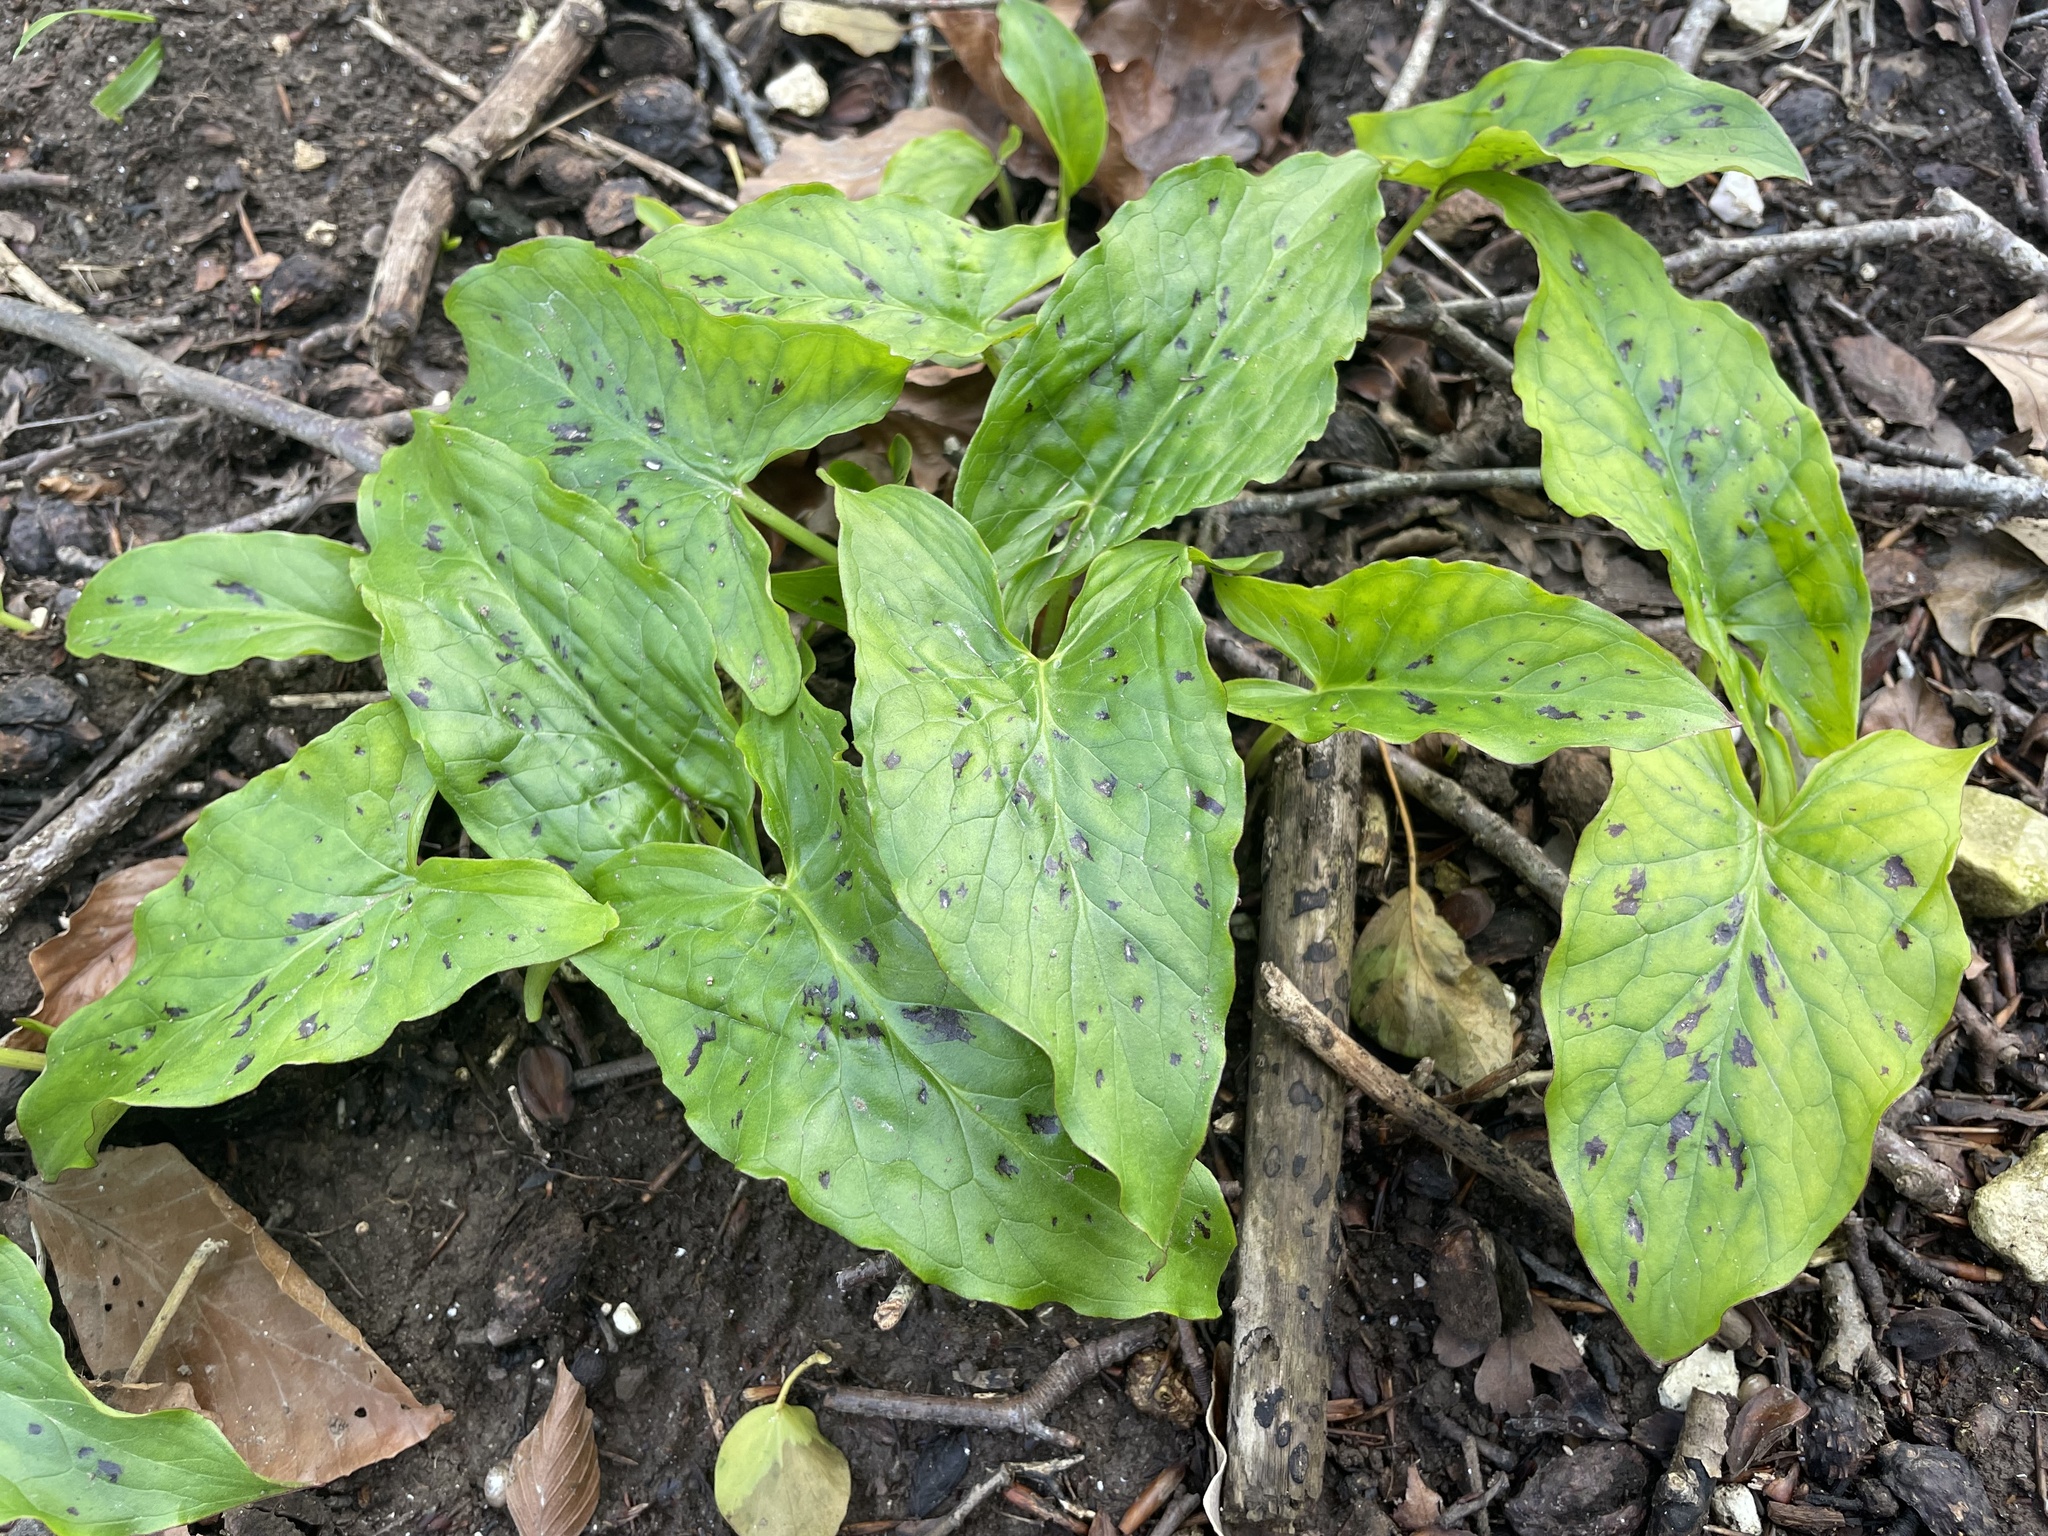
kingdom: Plantae
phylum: Tracheophyta
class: Liliopsida
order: Alismatales
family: Araceae
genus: Arum
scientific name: Arum maculatum
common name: Lords-and-ladies
